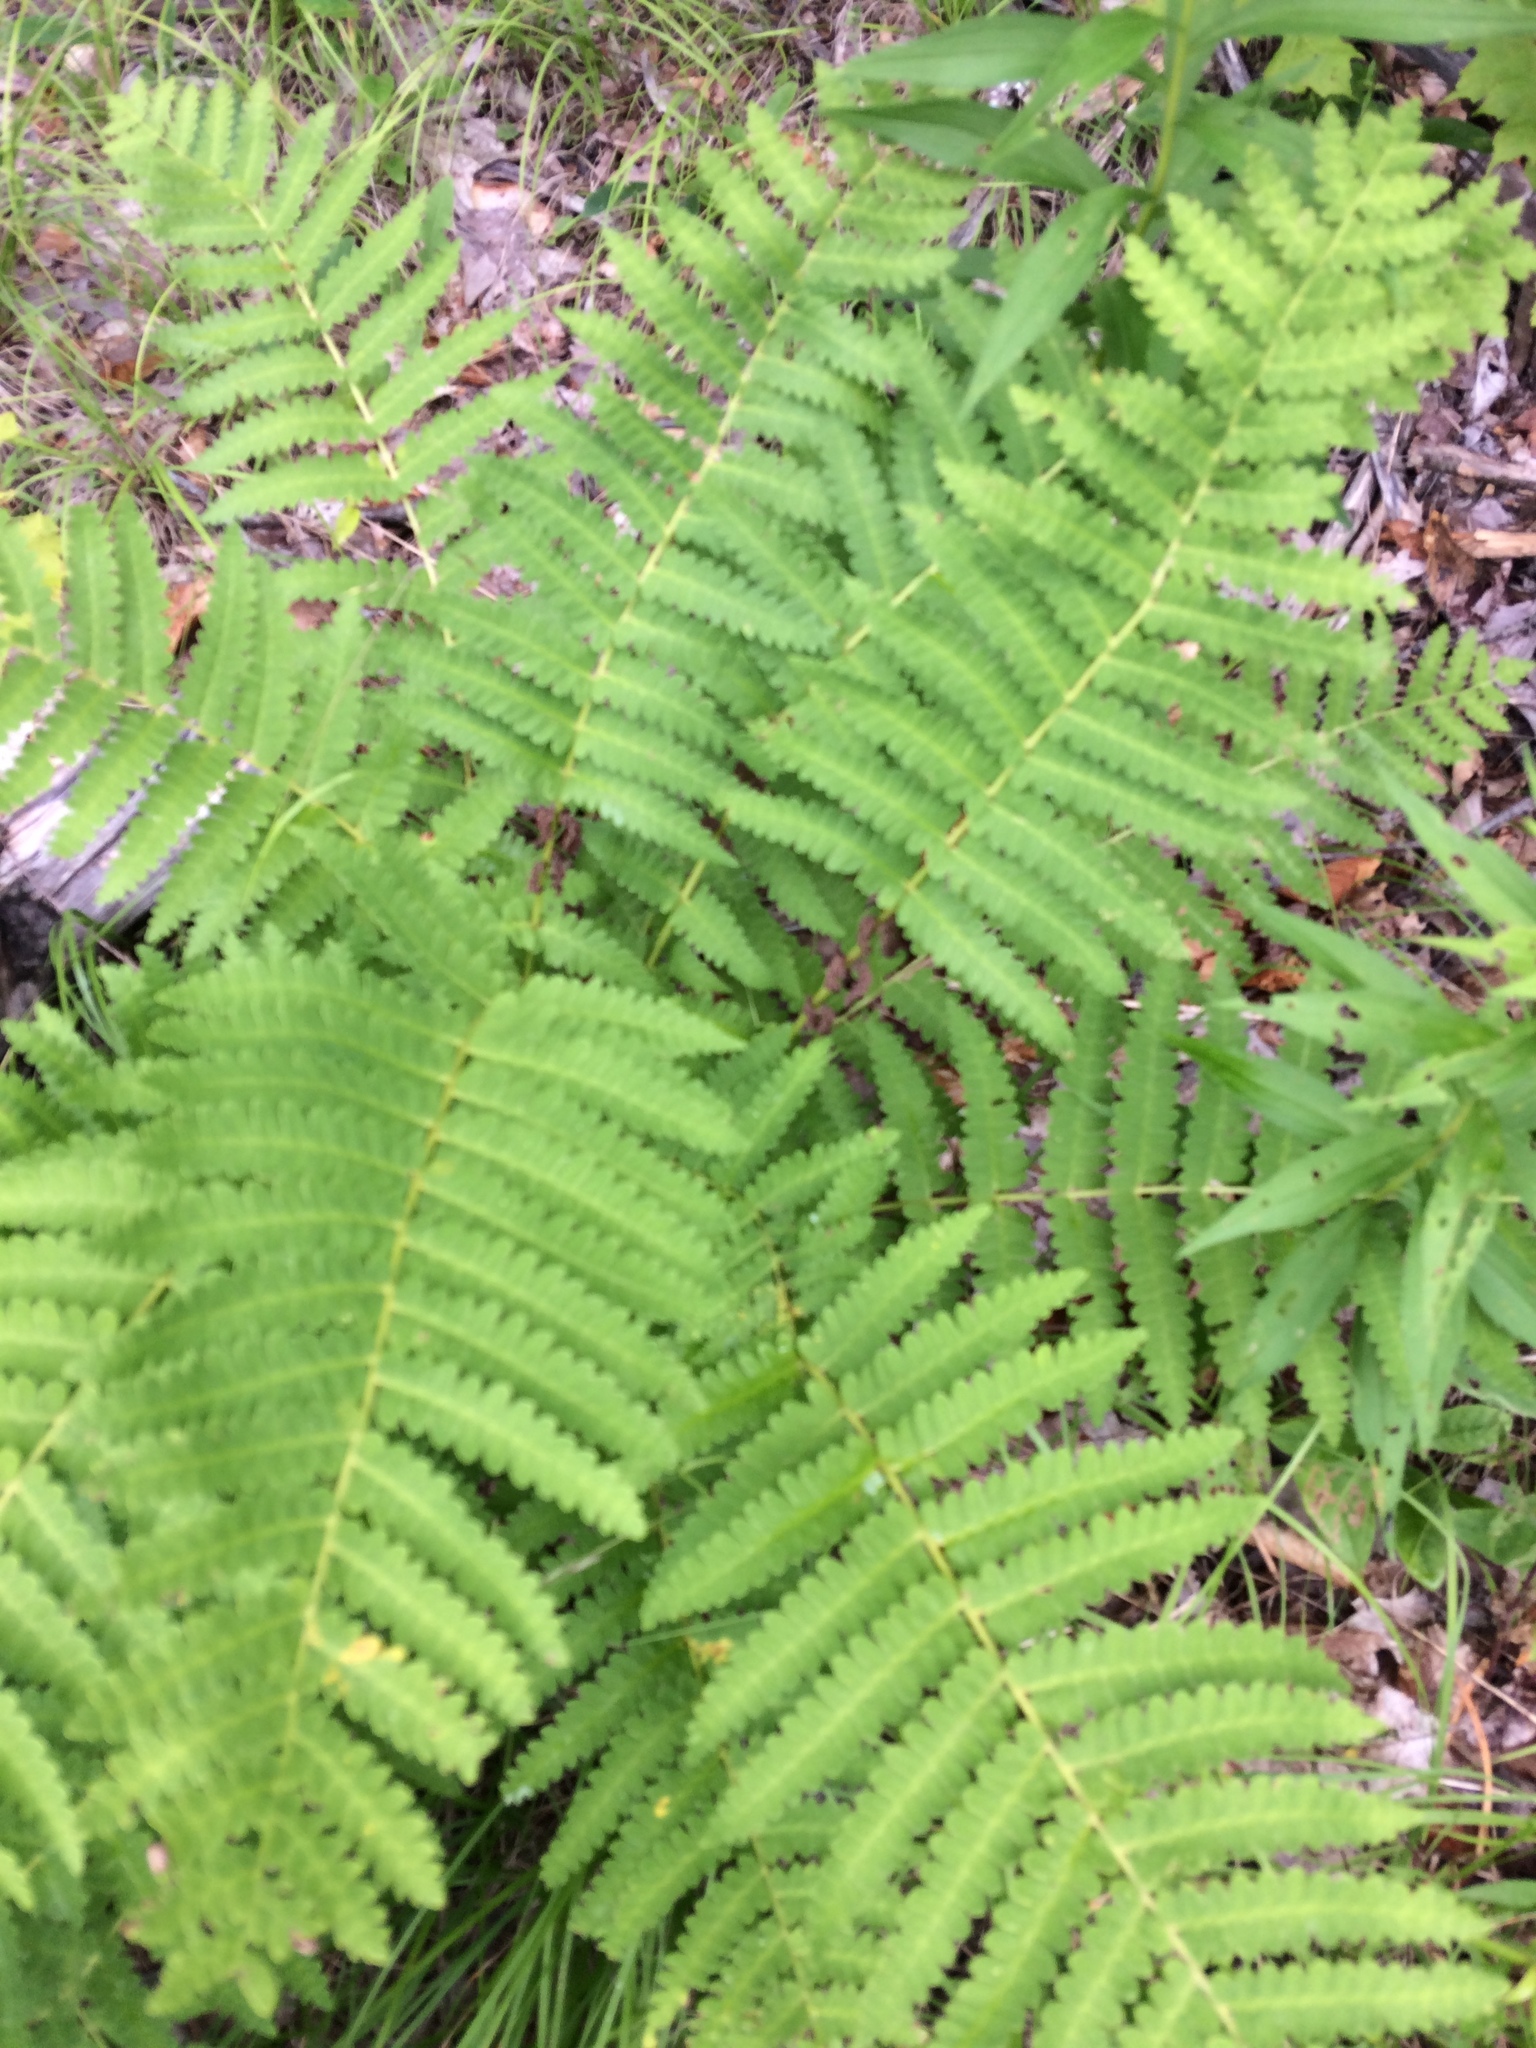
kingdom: Plantae
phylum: Tracheophyta
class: Polypodiopsida
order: Osmundales
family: Osmundaceae
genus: Claytosmunda
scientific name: Claytosmunda claytoniana
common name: Clayton's fern
